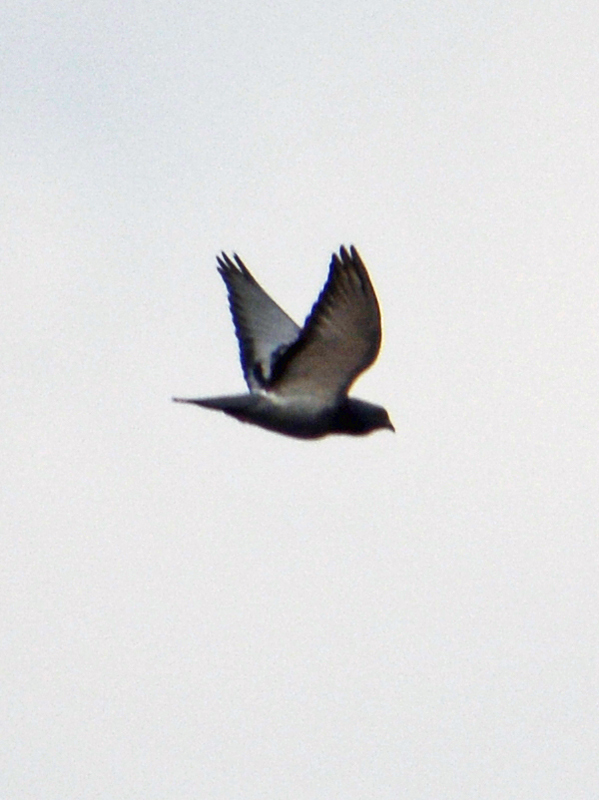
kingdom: Animalia
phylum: Chordata
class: Aves
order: Columbiformes
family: Columbidae
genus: Columba
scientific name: Columba livia
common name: Rock pigeon
